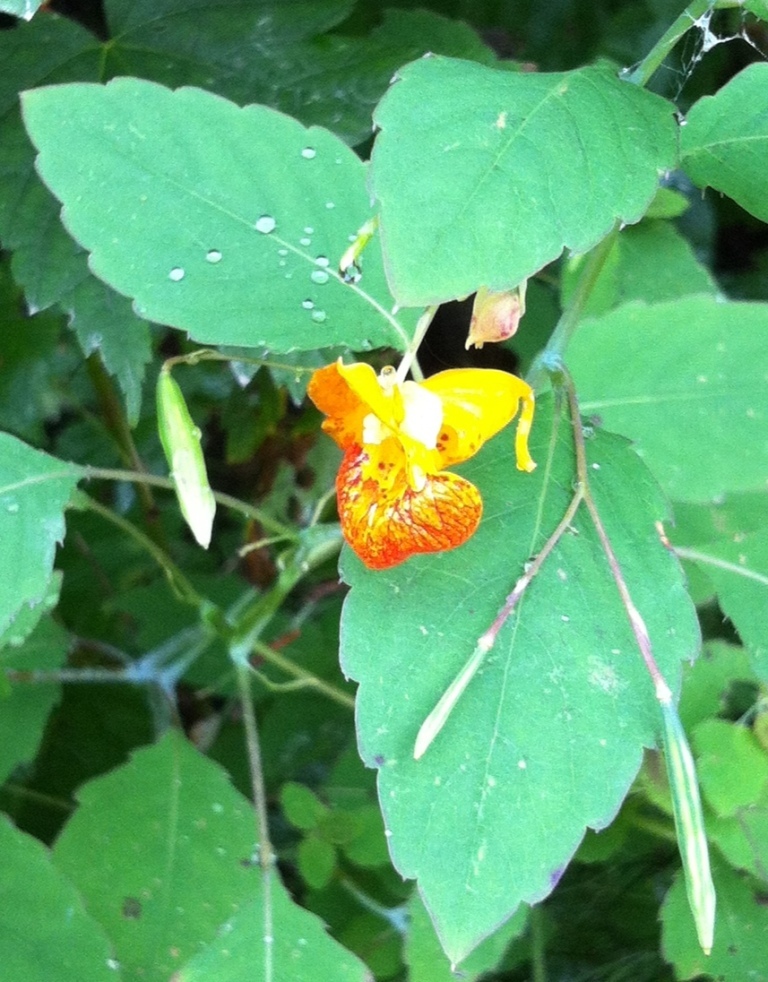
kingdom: Plantae
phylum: Tracheophyta
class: Magnoliopsida
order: Ericales
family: Balsaminaceae
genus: Impatiens
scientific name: Impatiens capensis
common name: Orange balsam
